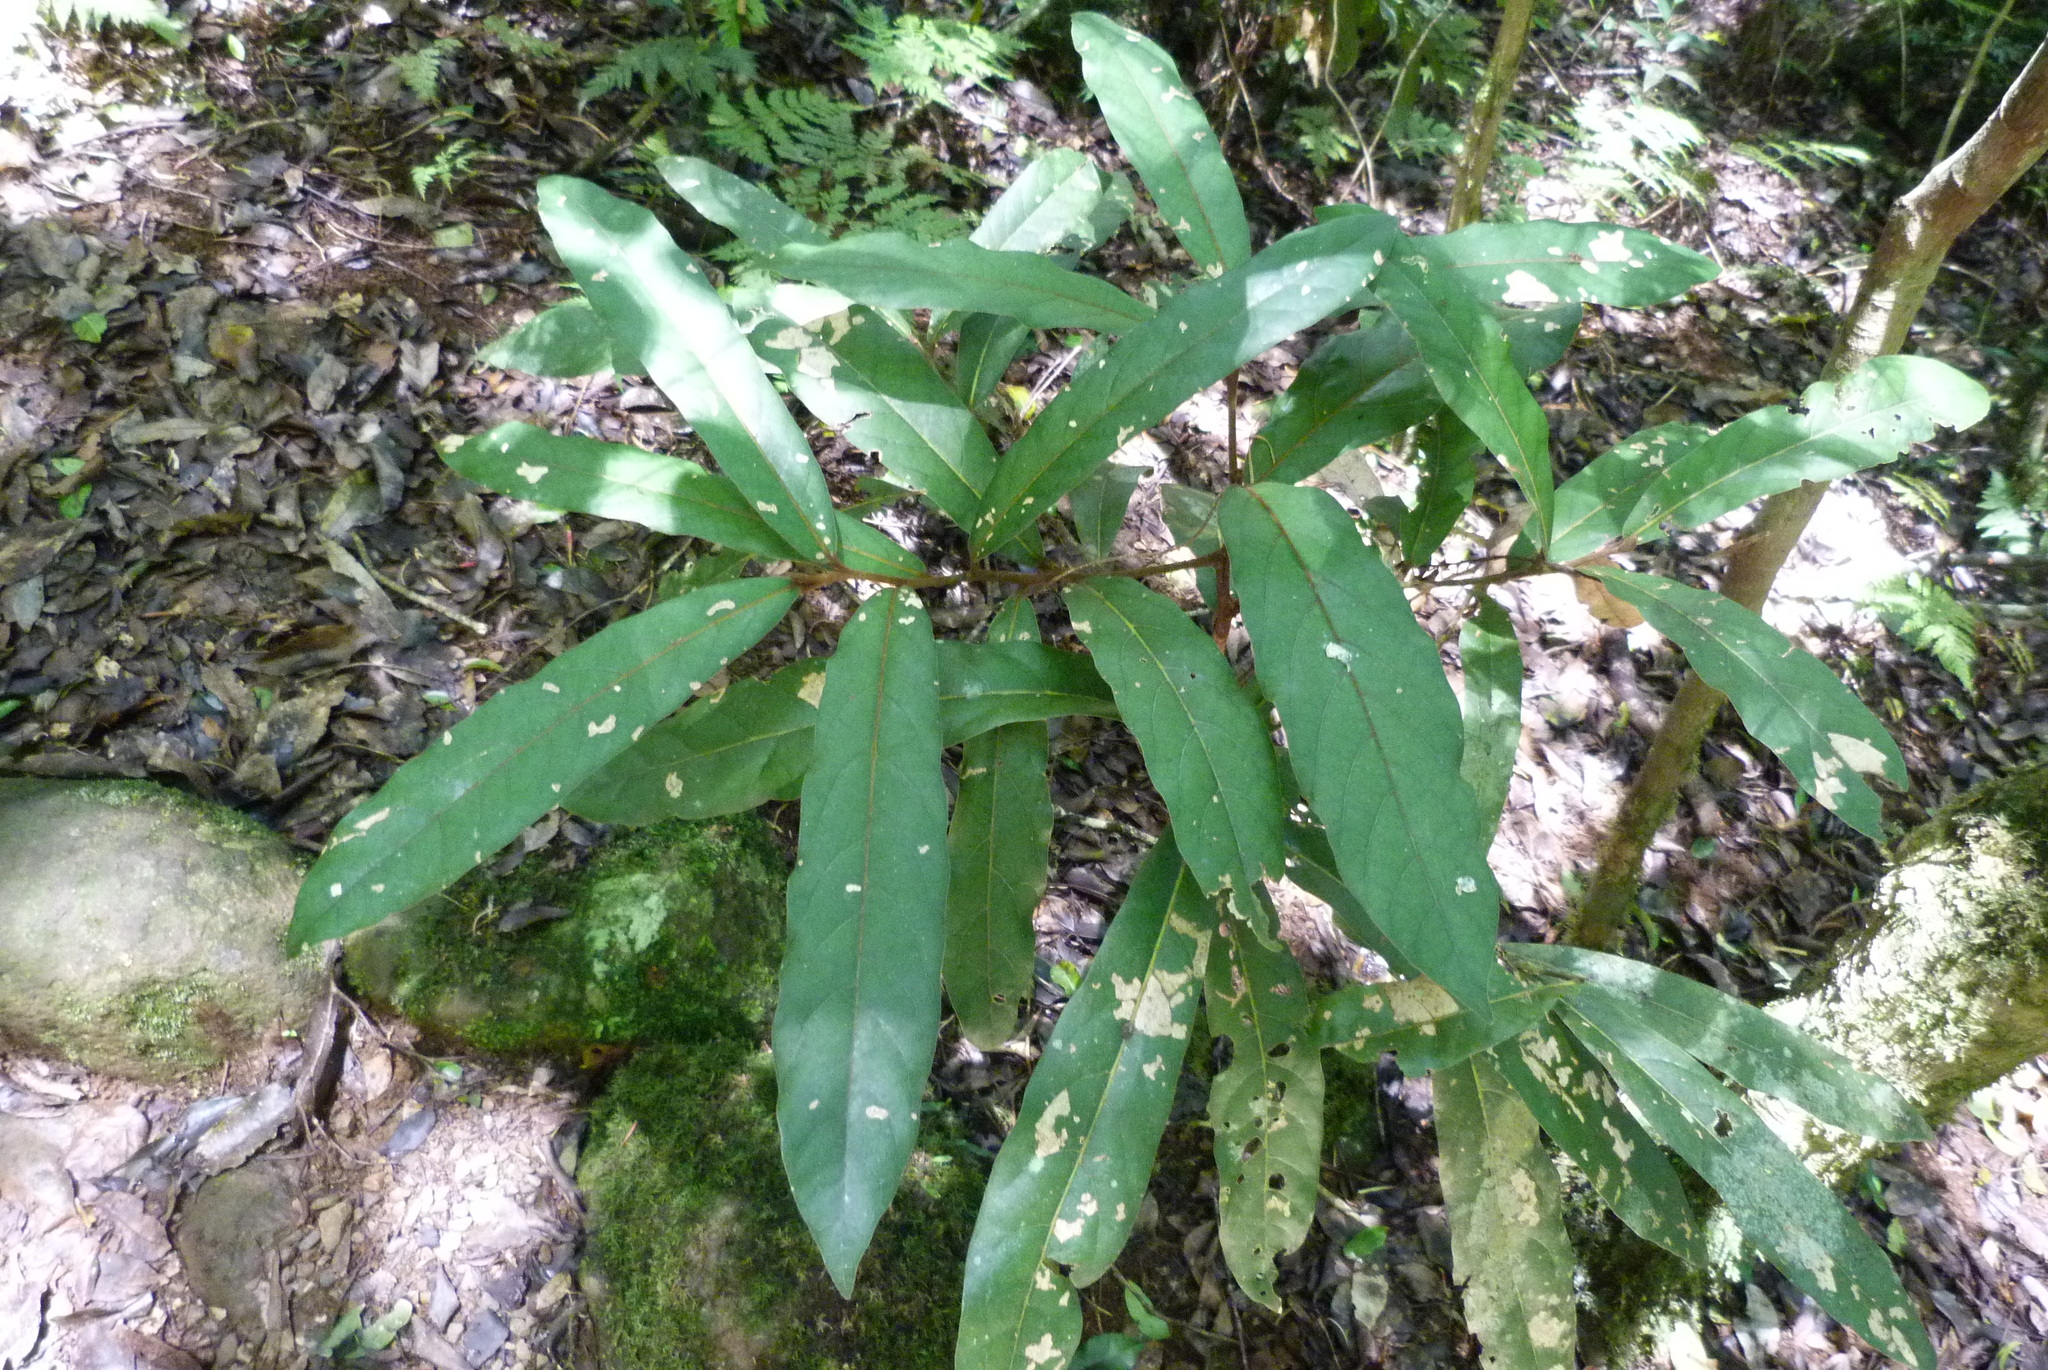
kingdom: Plantae
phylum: Tracheophyta
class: Magnoliopsida
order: Laurales
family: Lauraceae
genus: Cryptocarya
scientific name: Cryptocarya obovata
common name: Pepperberry-tree
